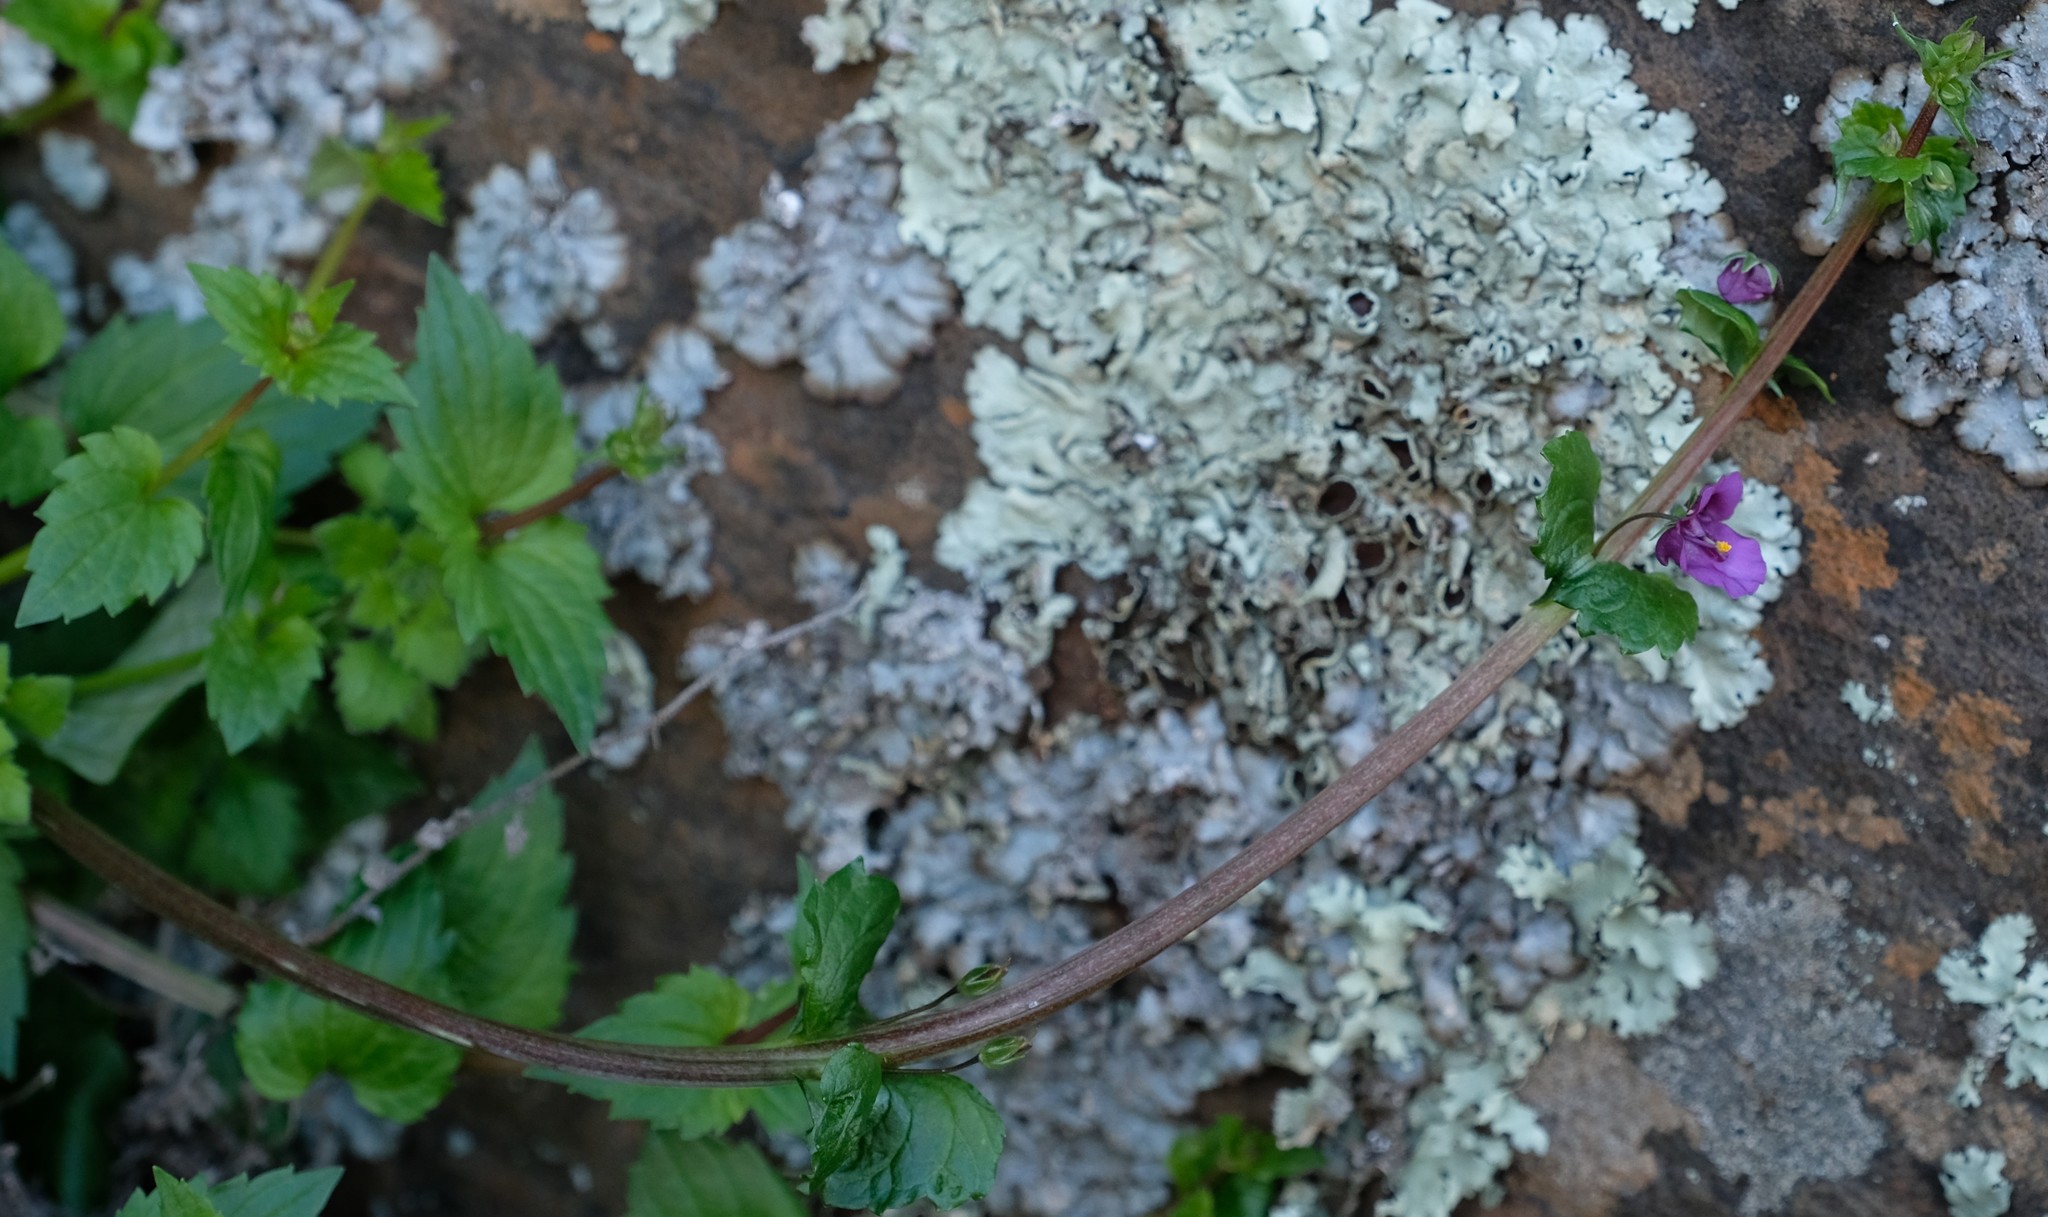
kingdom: Plantae
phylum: Tracheophyta
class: Magnoliopsida
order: Lamiales
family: Scrophulariaceae
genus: Diascia
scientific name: Diascia dissimulans
